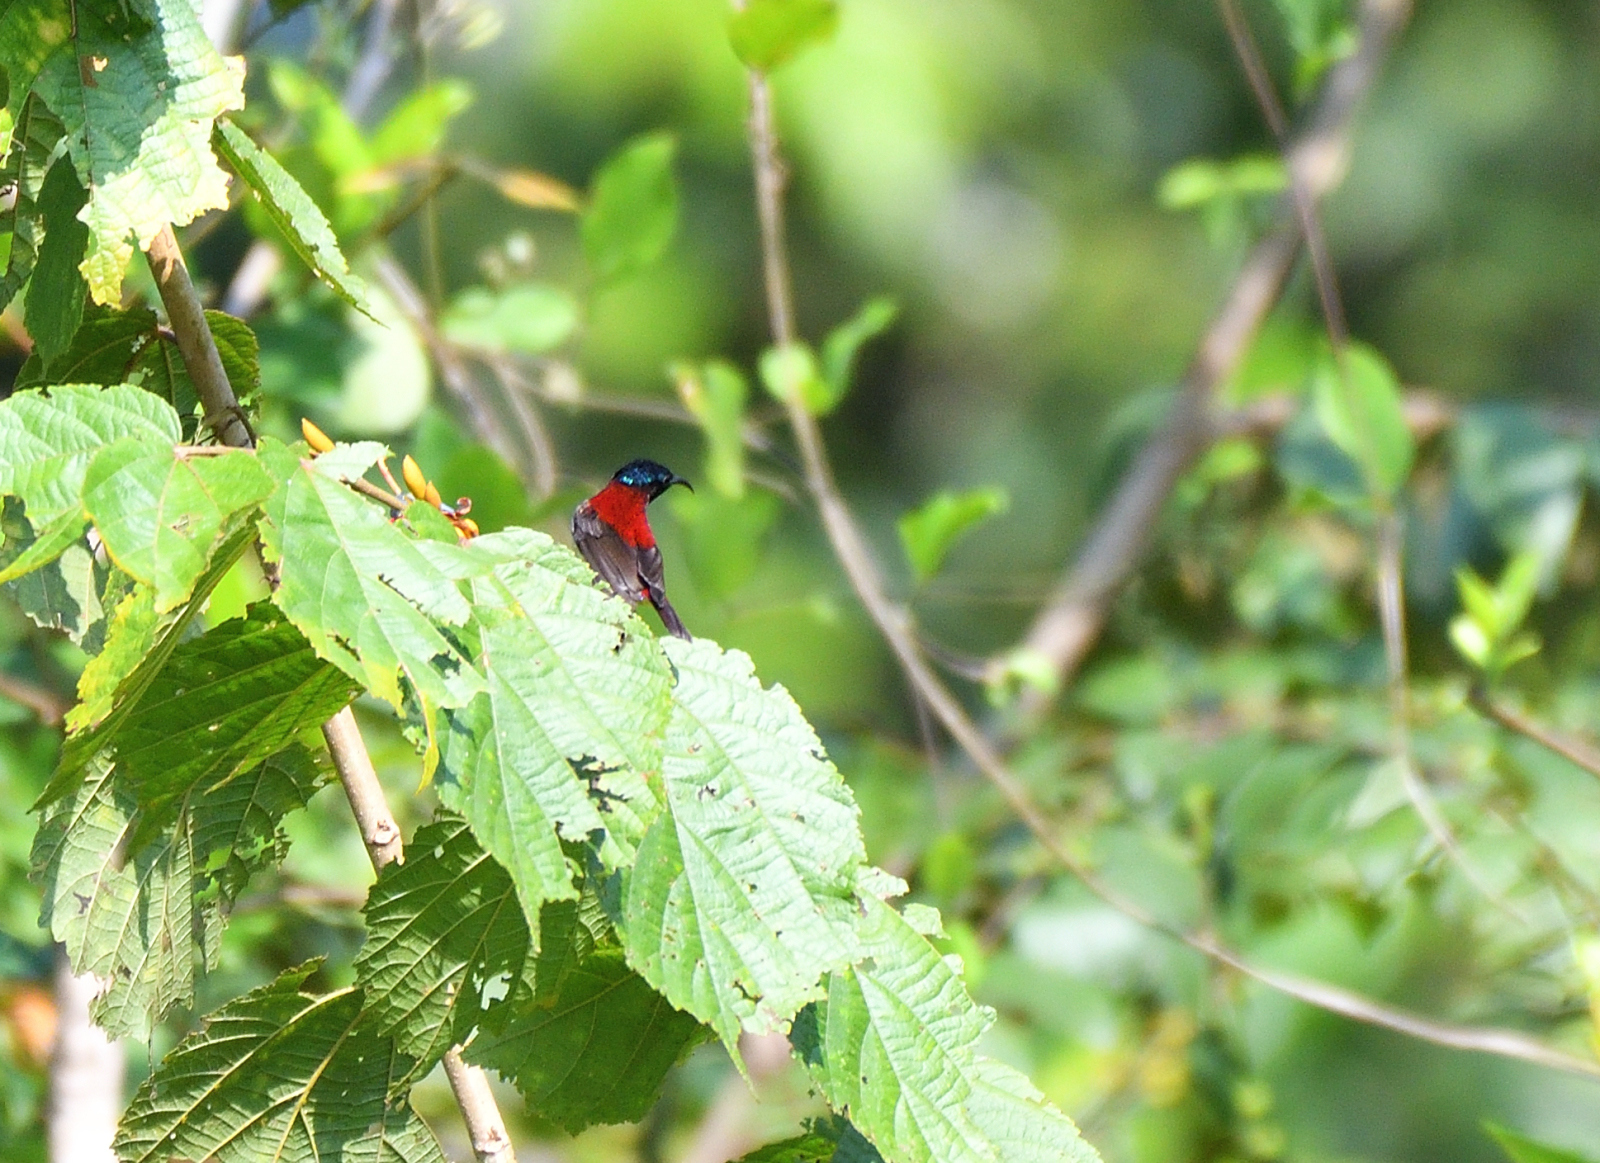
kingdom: Animalia
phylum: Chordata
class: Aves
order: Passeriformes
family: Nectariniidae
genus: Leptocoma
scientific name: Leptocoma minima
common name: Crimson-backed sunbird
